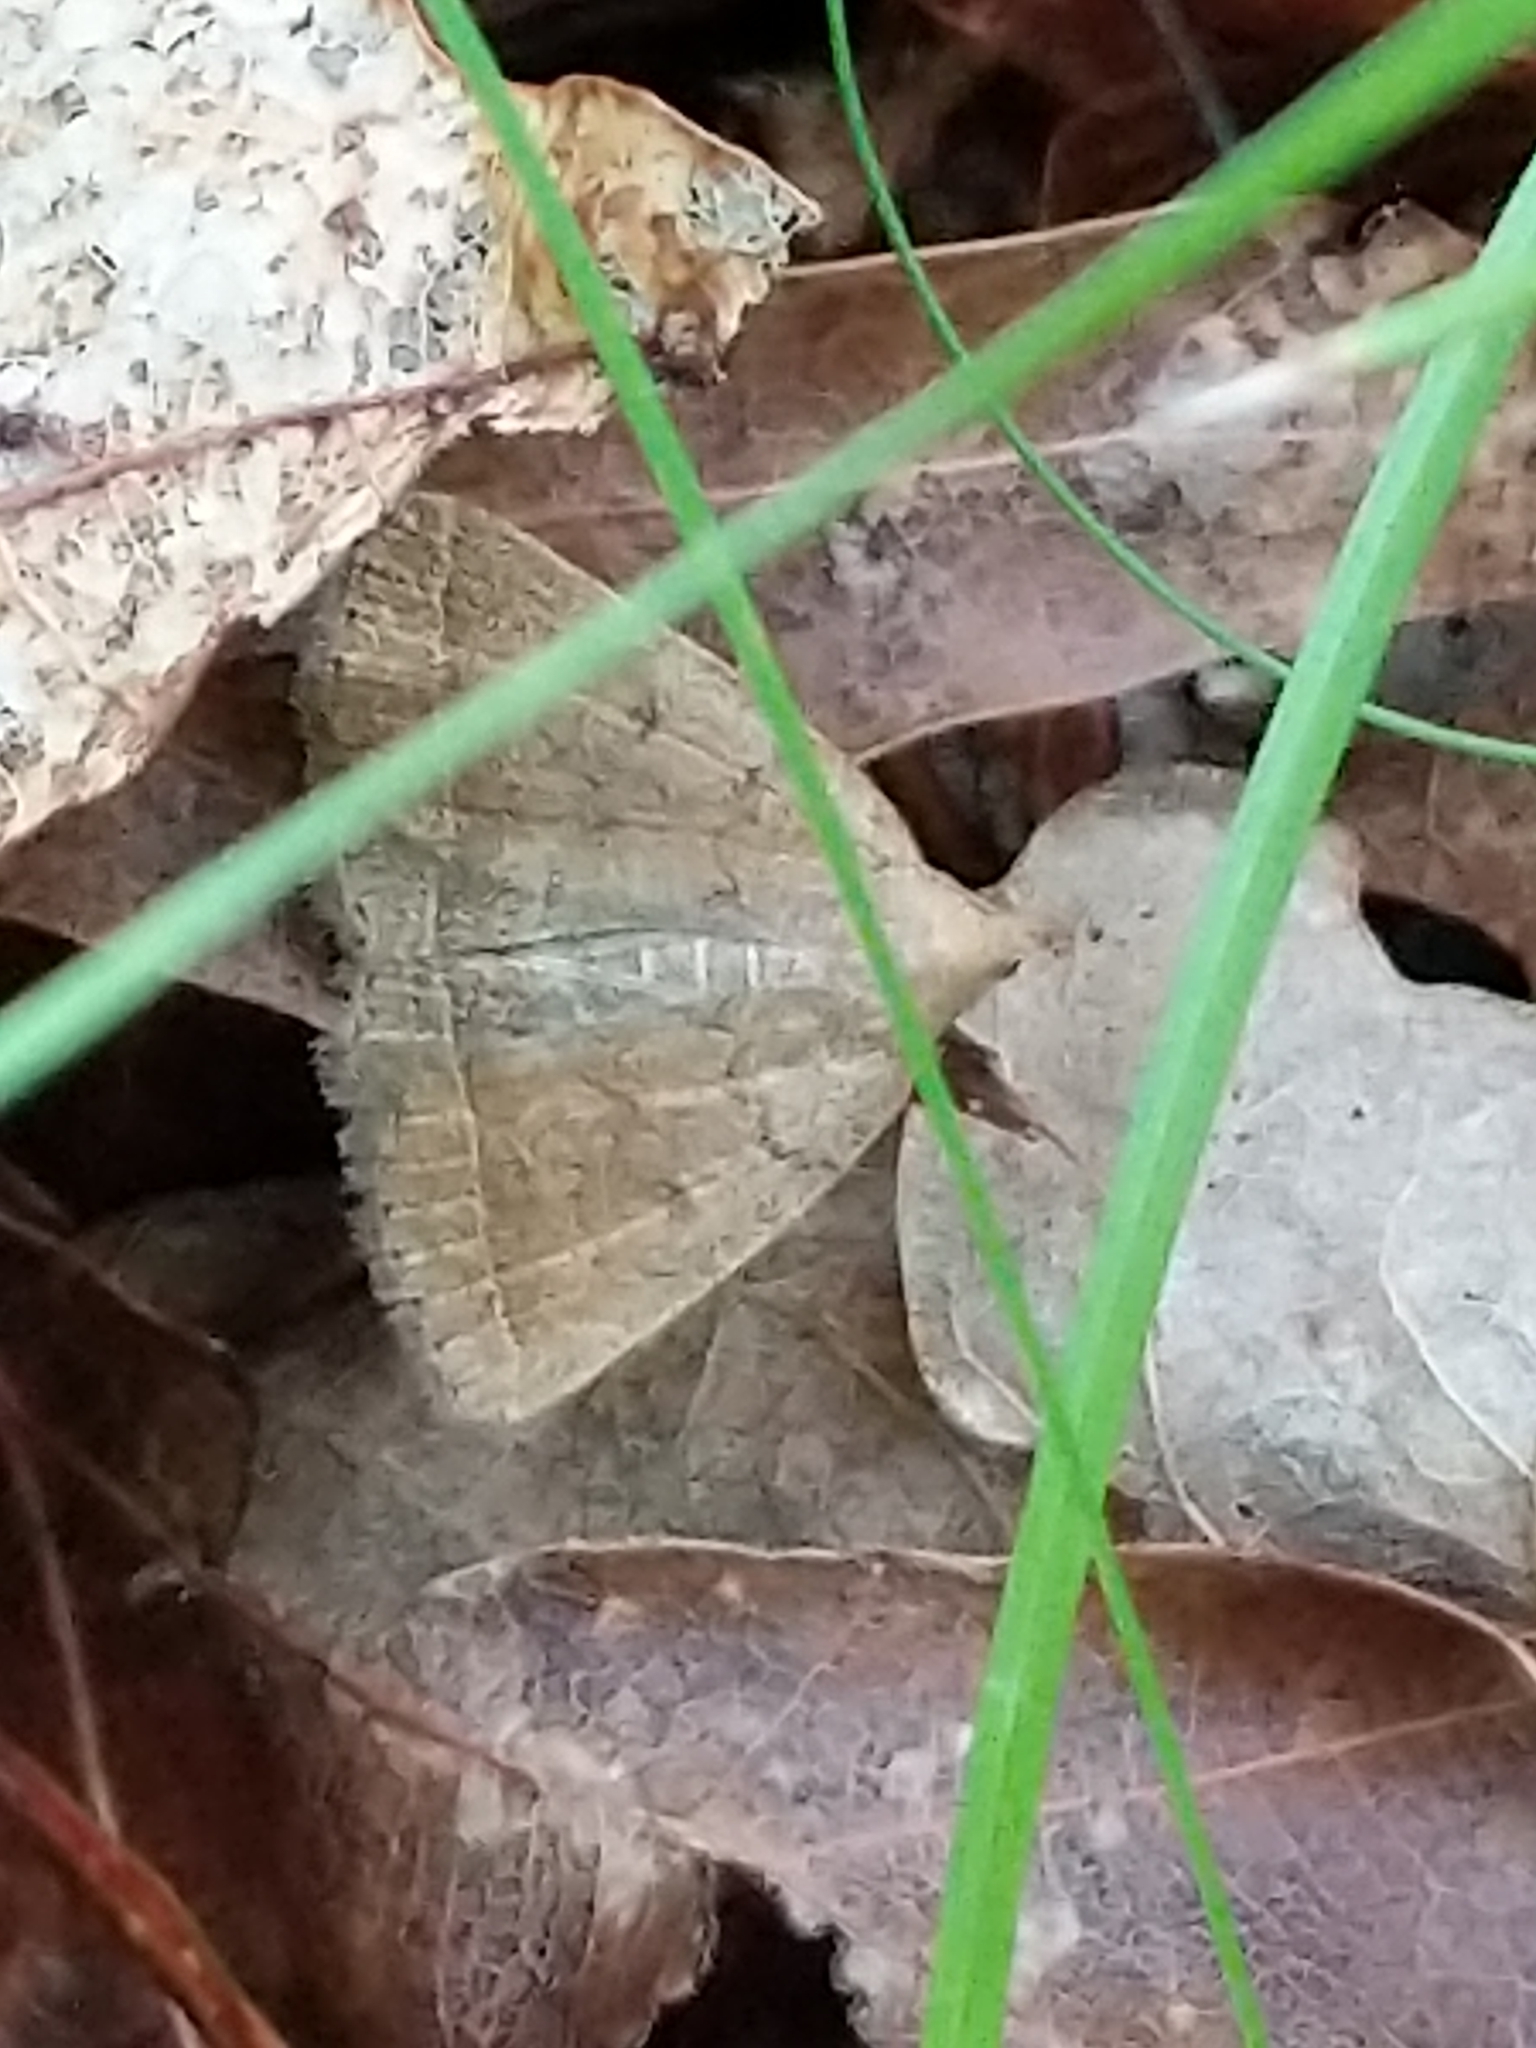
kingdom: Animalia
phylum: Arthropoda
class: Insecta
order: Lepidoptera
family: Erebidae
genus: Zanclognatha
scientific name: Zanclognatha jacchusalis
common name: Yellowish zanclognatha
